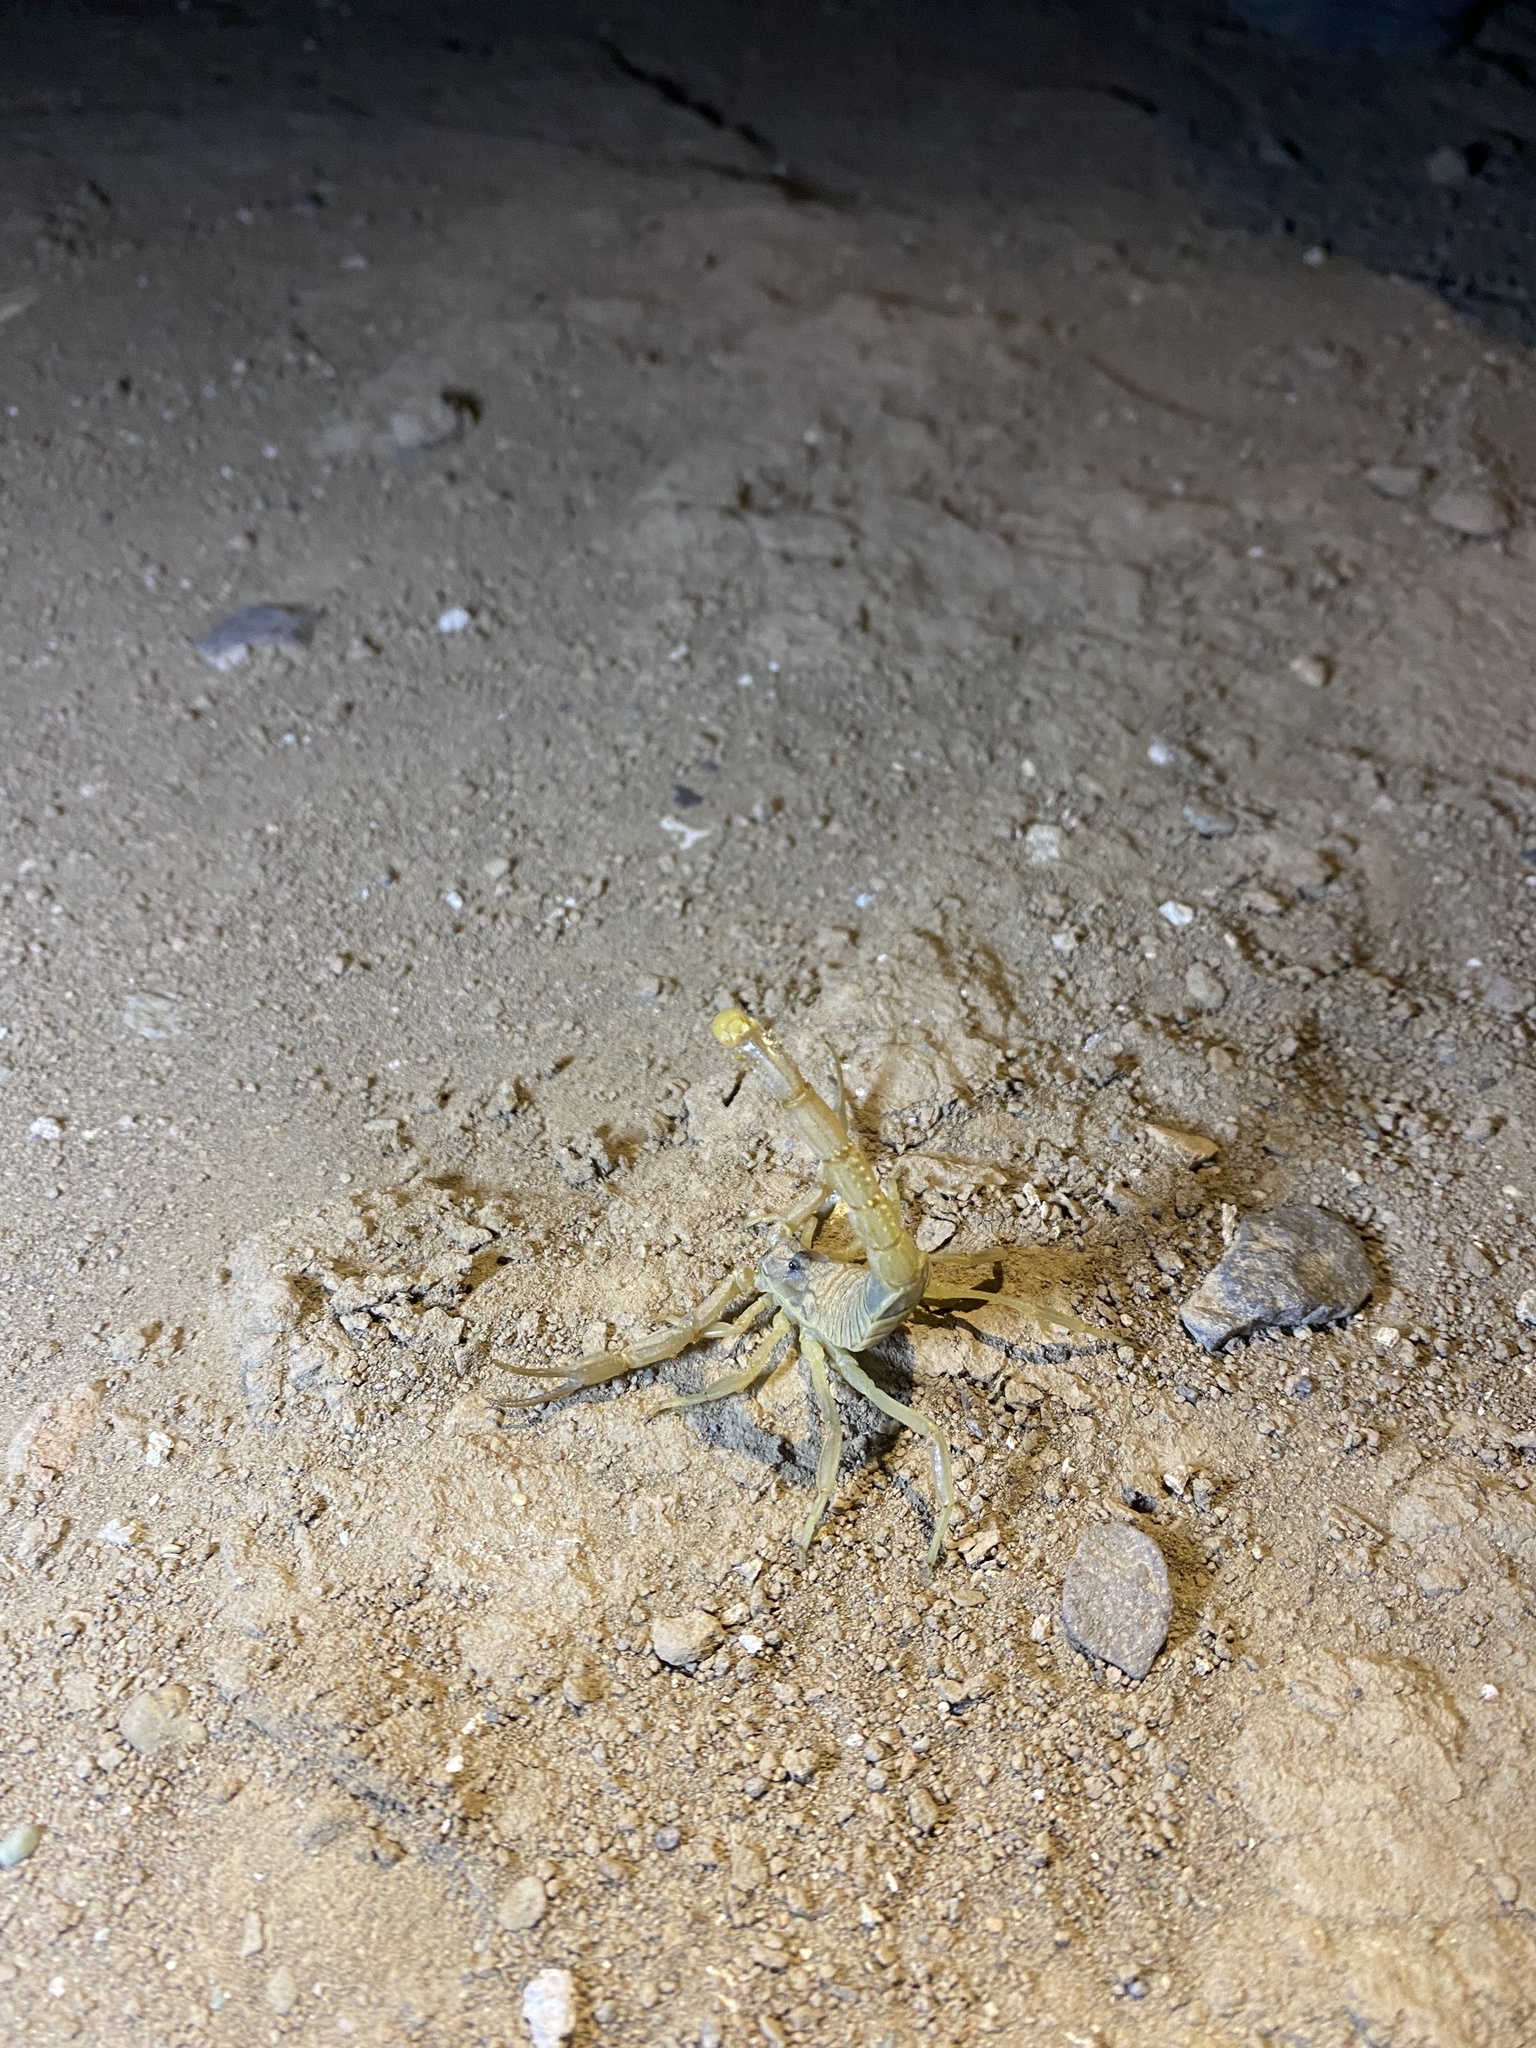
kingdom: Animalia
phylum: Arthropoda
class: Arachnida
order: Scorpiones
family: Buthidae
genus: Odontobuthus
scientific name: Odontobuthus doriae
